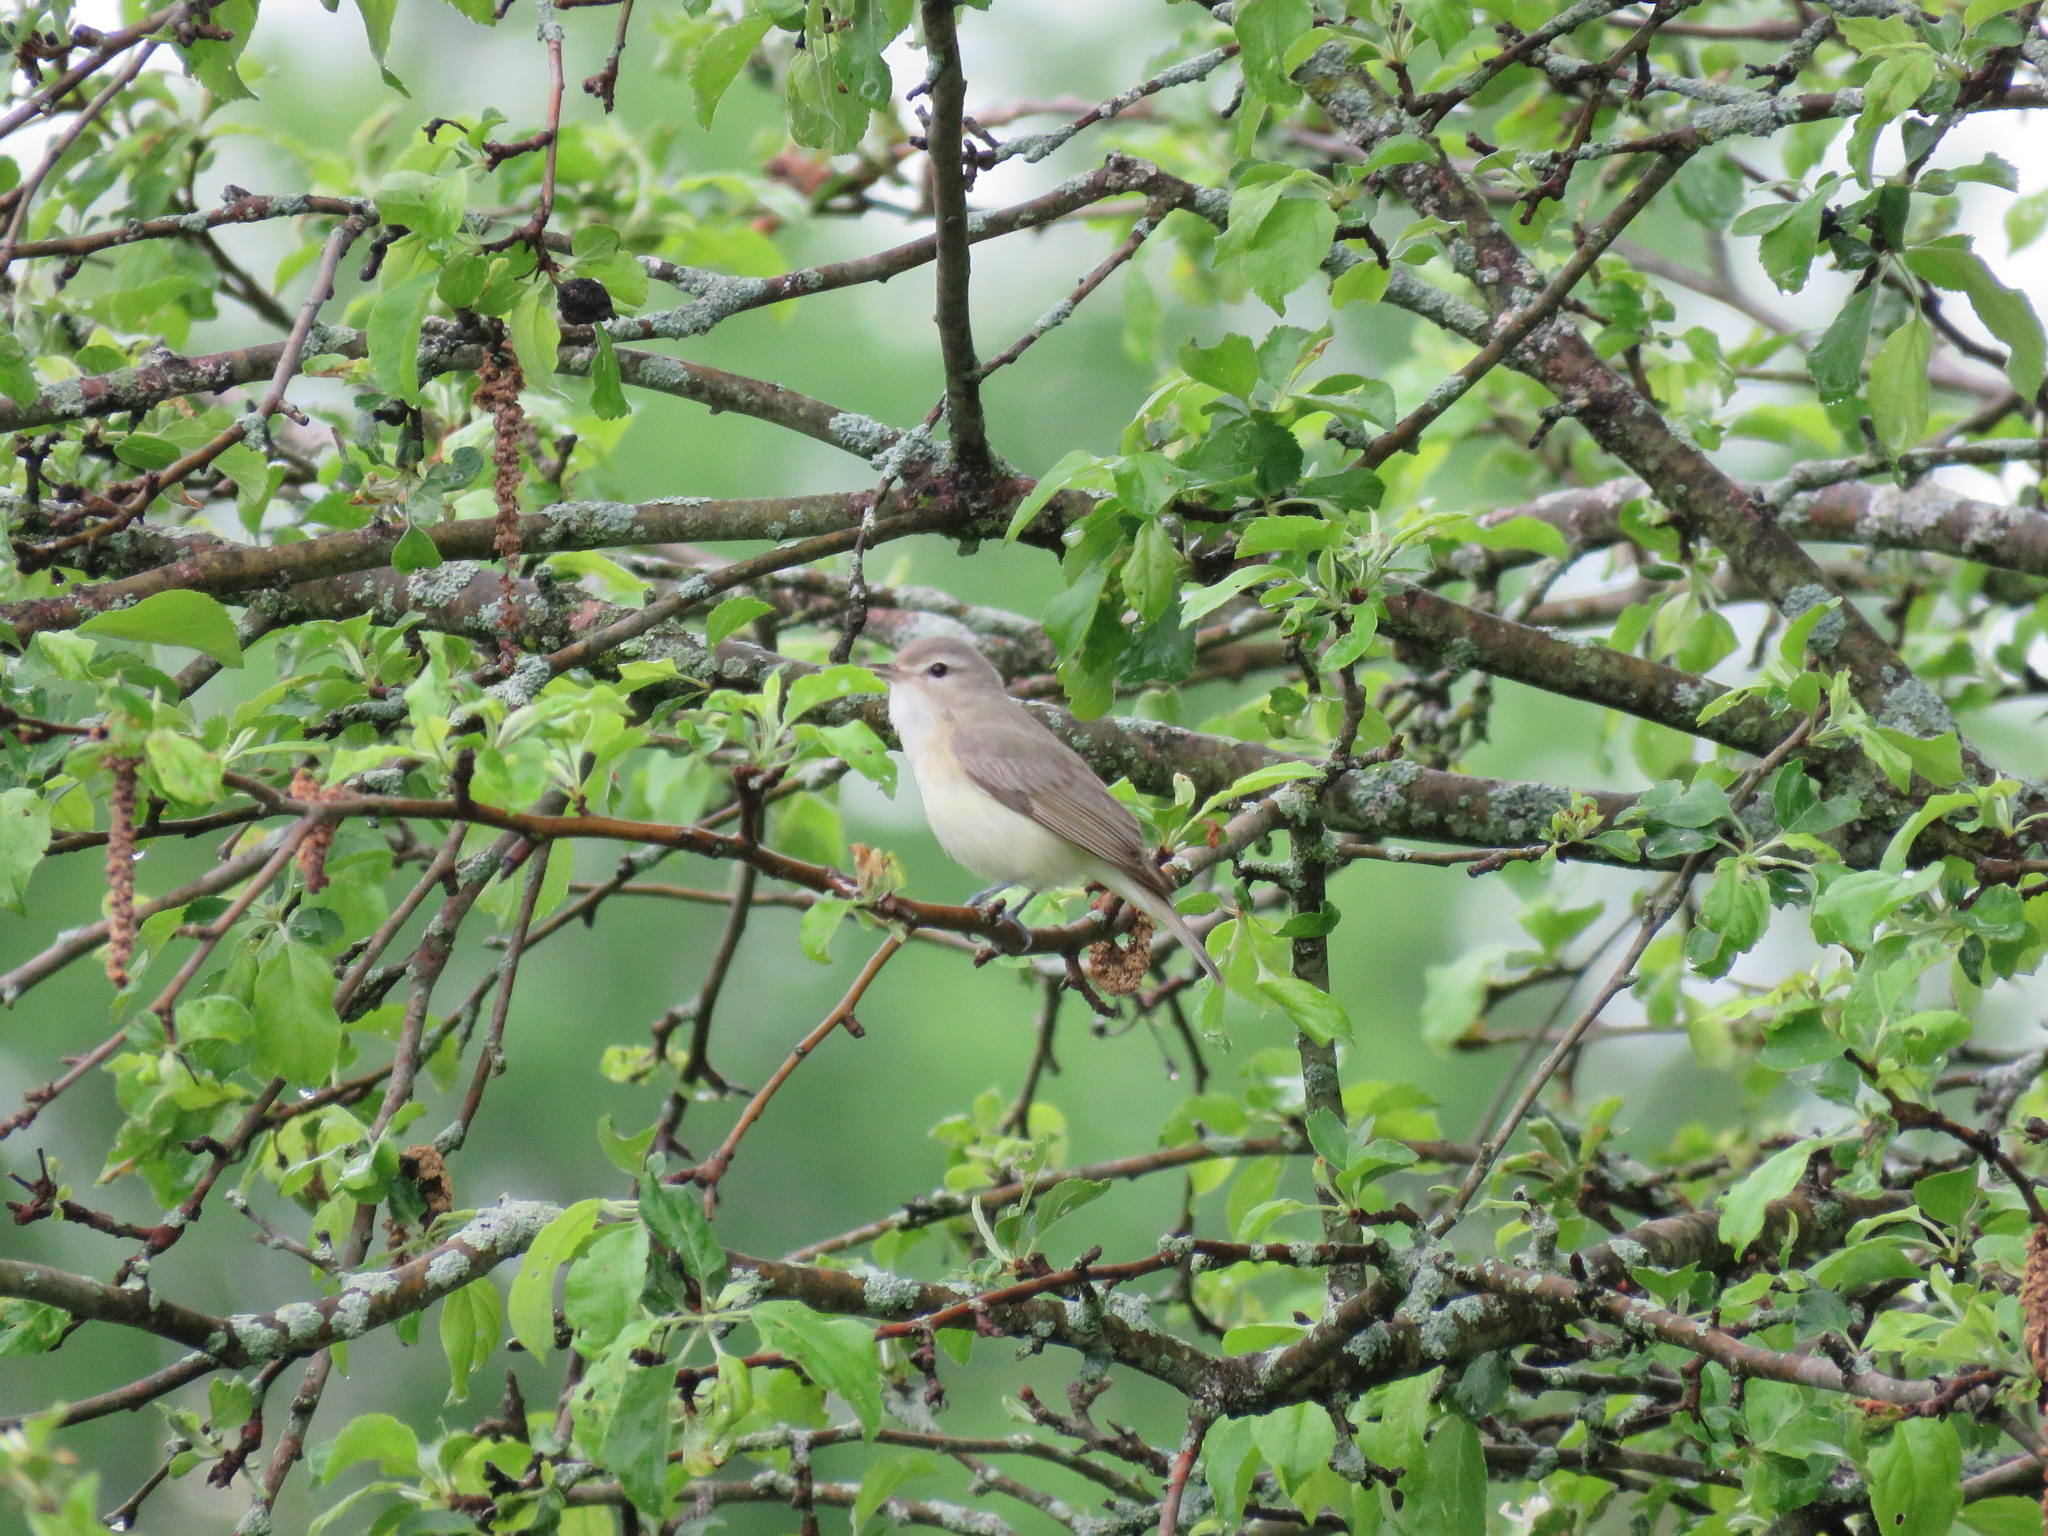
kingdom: Animalia
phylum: Chordata
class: Aves
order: Passeriformes
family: Vireonidae
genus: Vireo
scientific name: Vireo gilvus
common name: Warbling vireo
